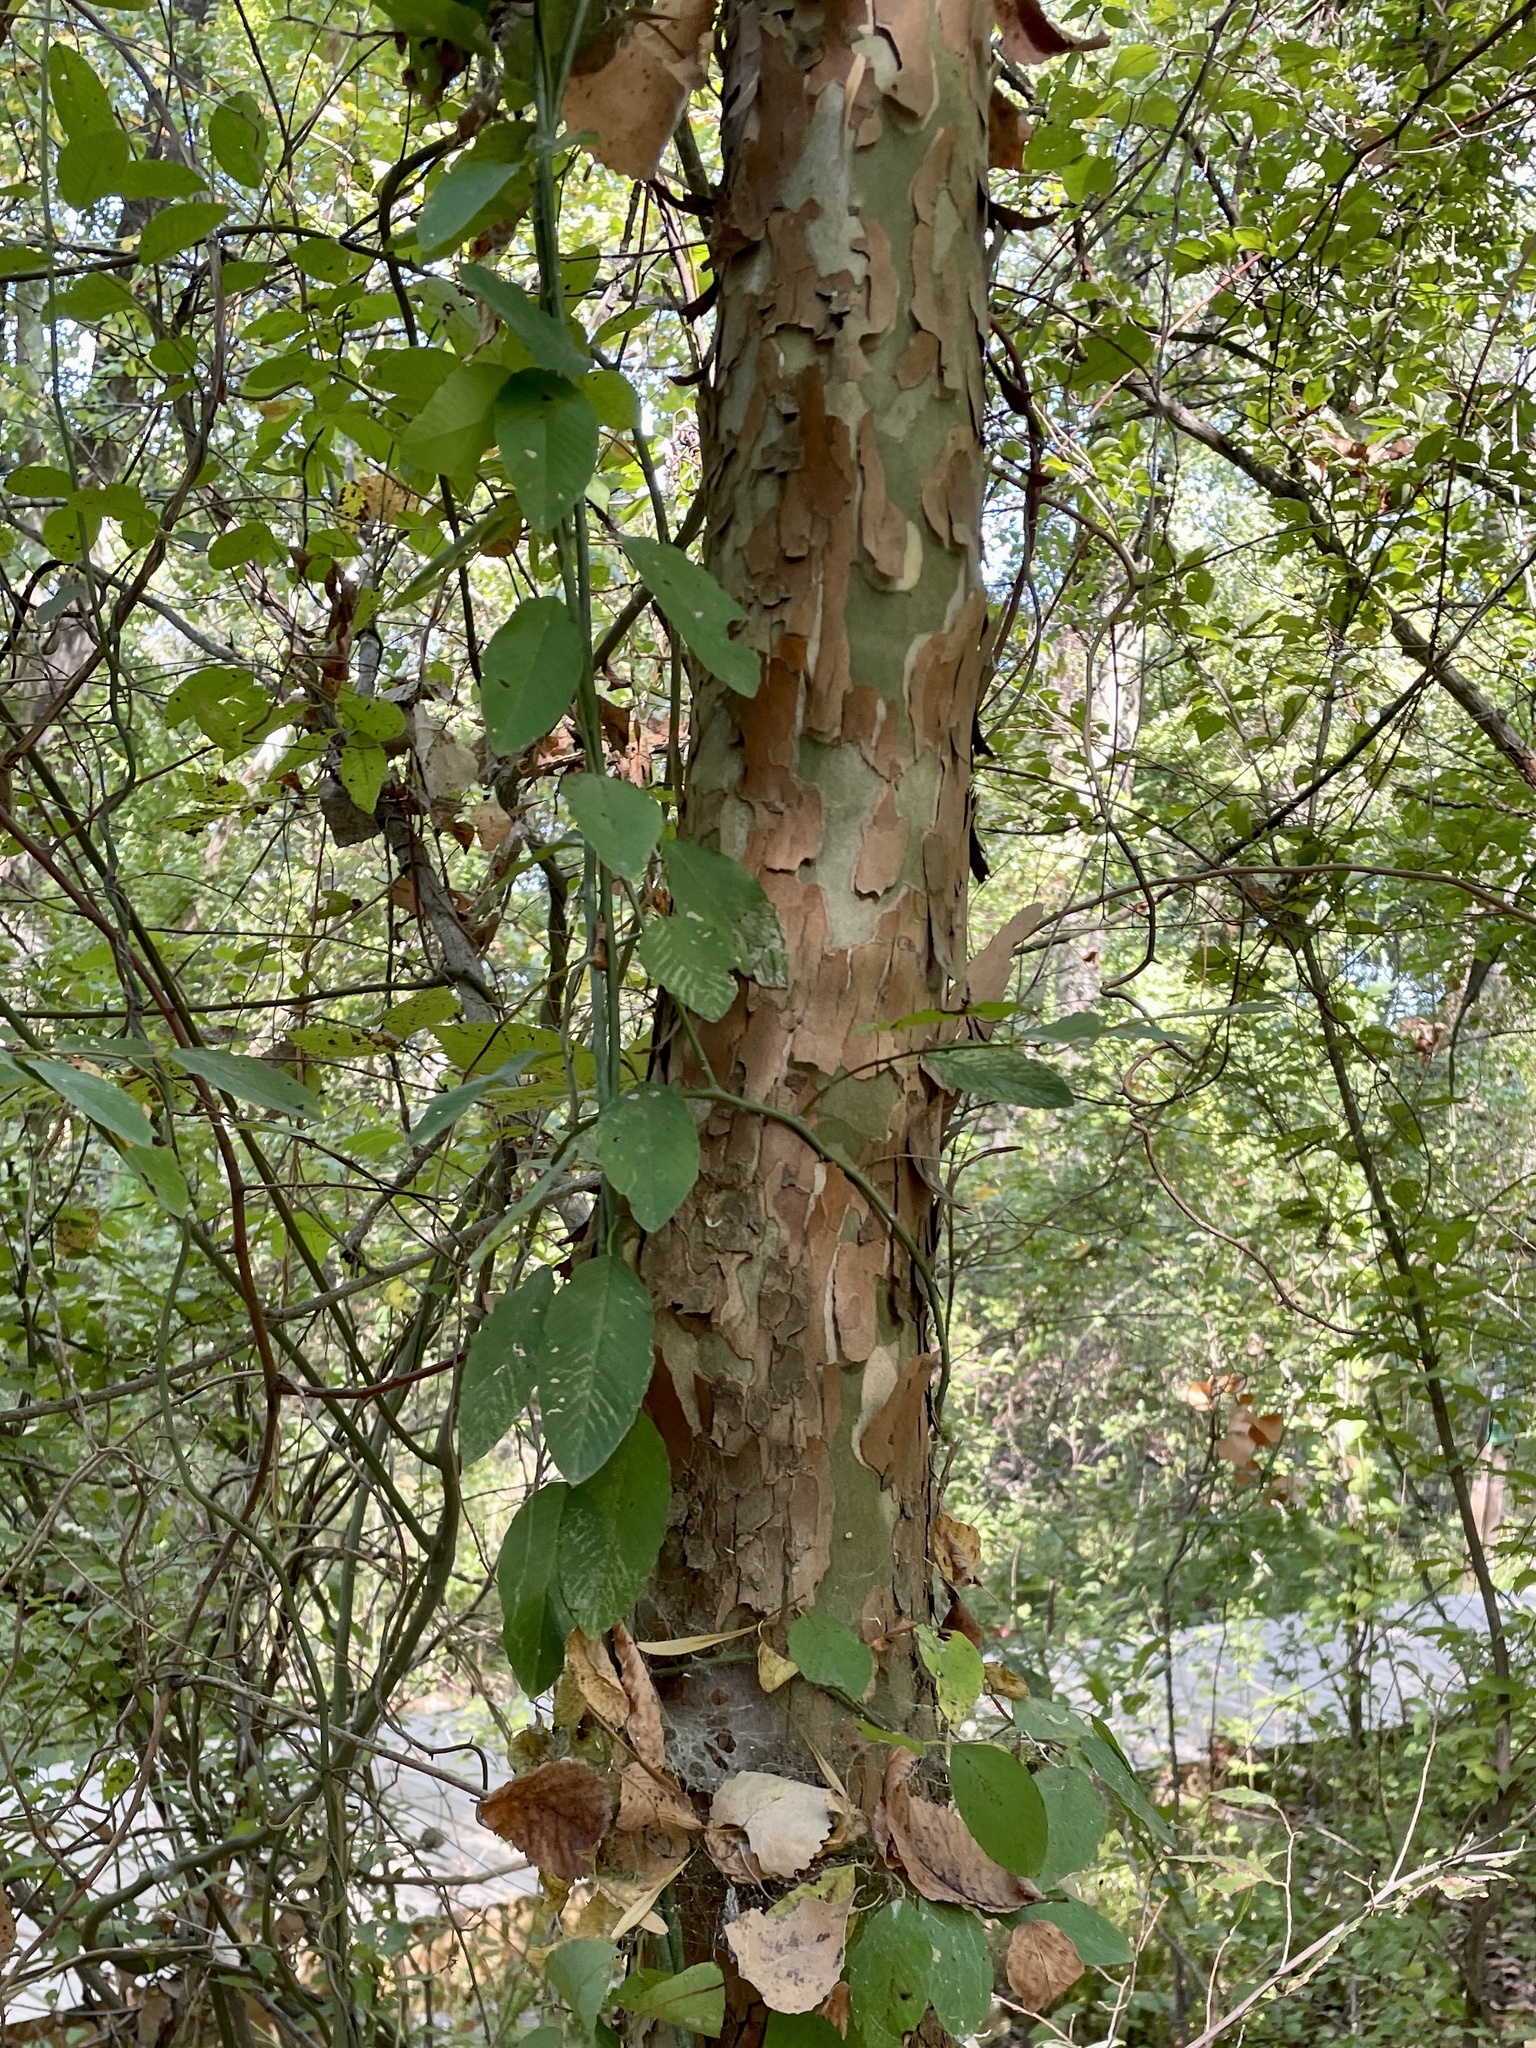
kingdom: Plantae
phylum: Tracheophyta
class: Magnoliopsida
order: Proteales
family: Platanaceae
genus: Platanus
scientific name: Platanus occidentalis
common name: American sycamore
